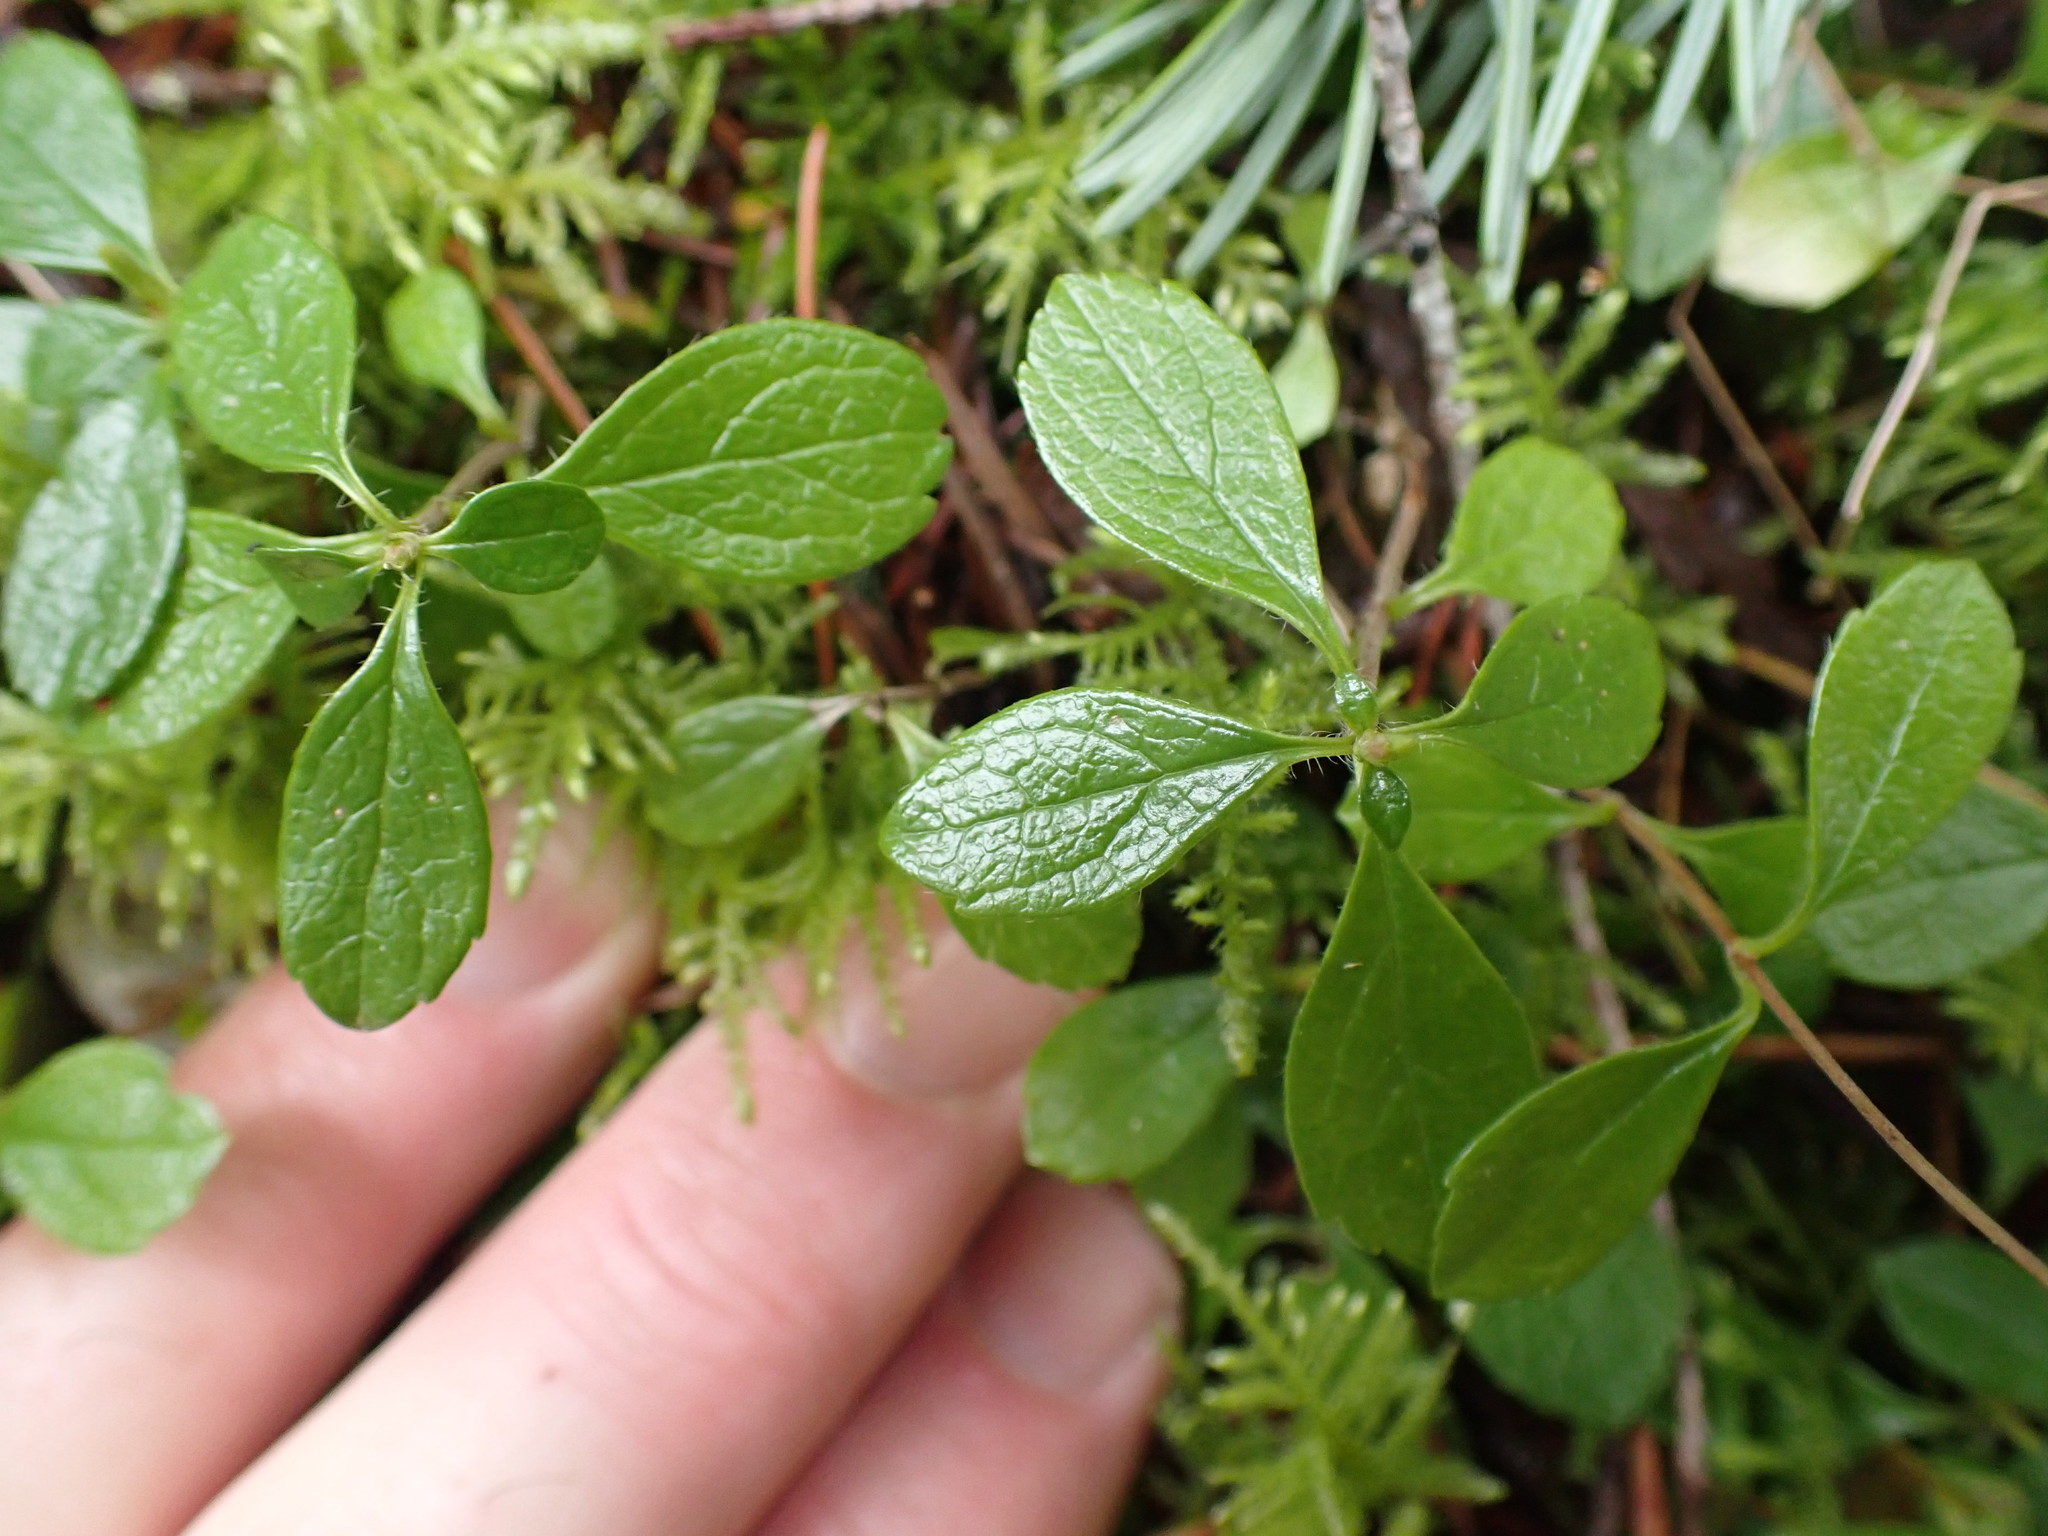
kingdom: Plantae
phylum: Tracheophyta
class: Magnoliopsida
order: Dipsacales
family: Caprifoliaceae
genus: Linnaea
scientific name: Linnaea borealis
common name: Twinflower
